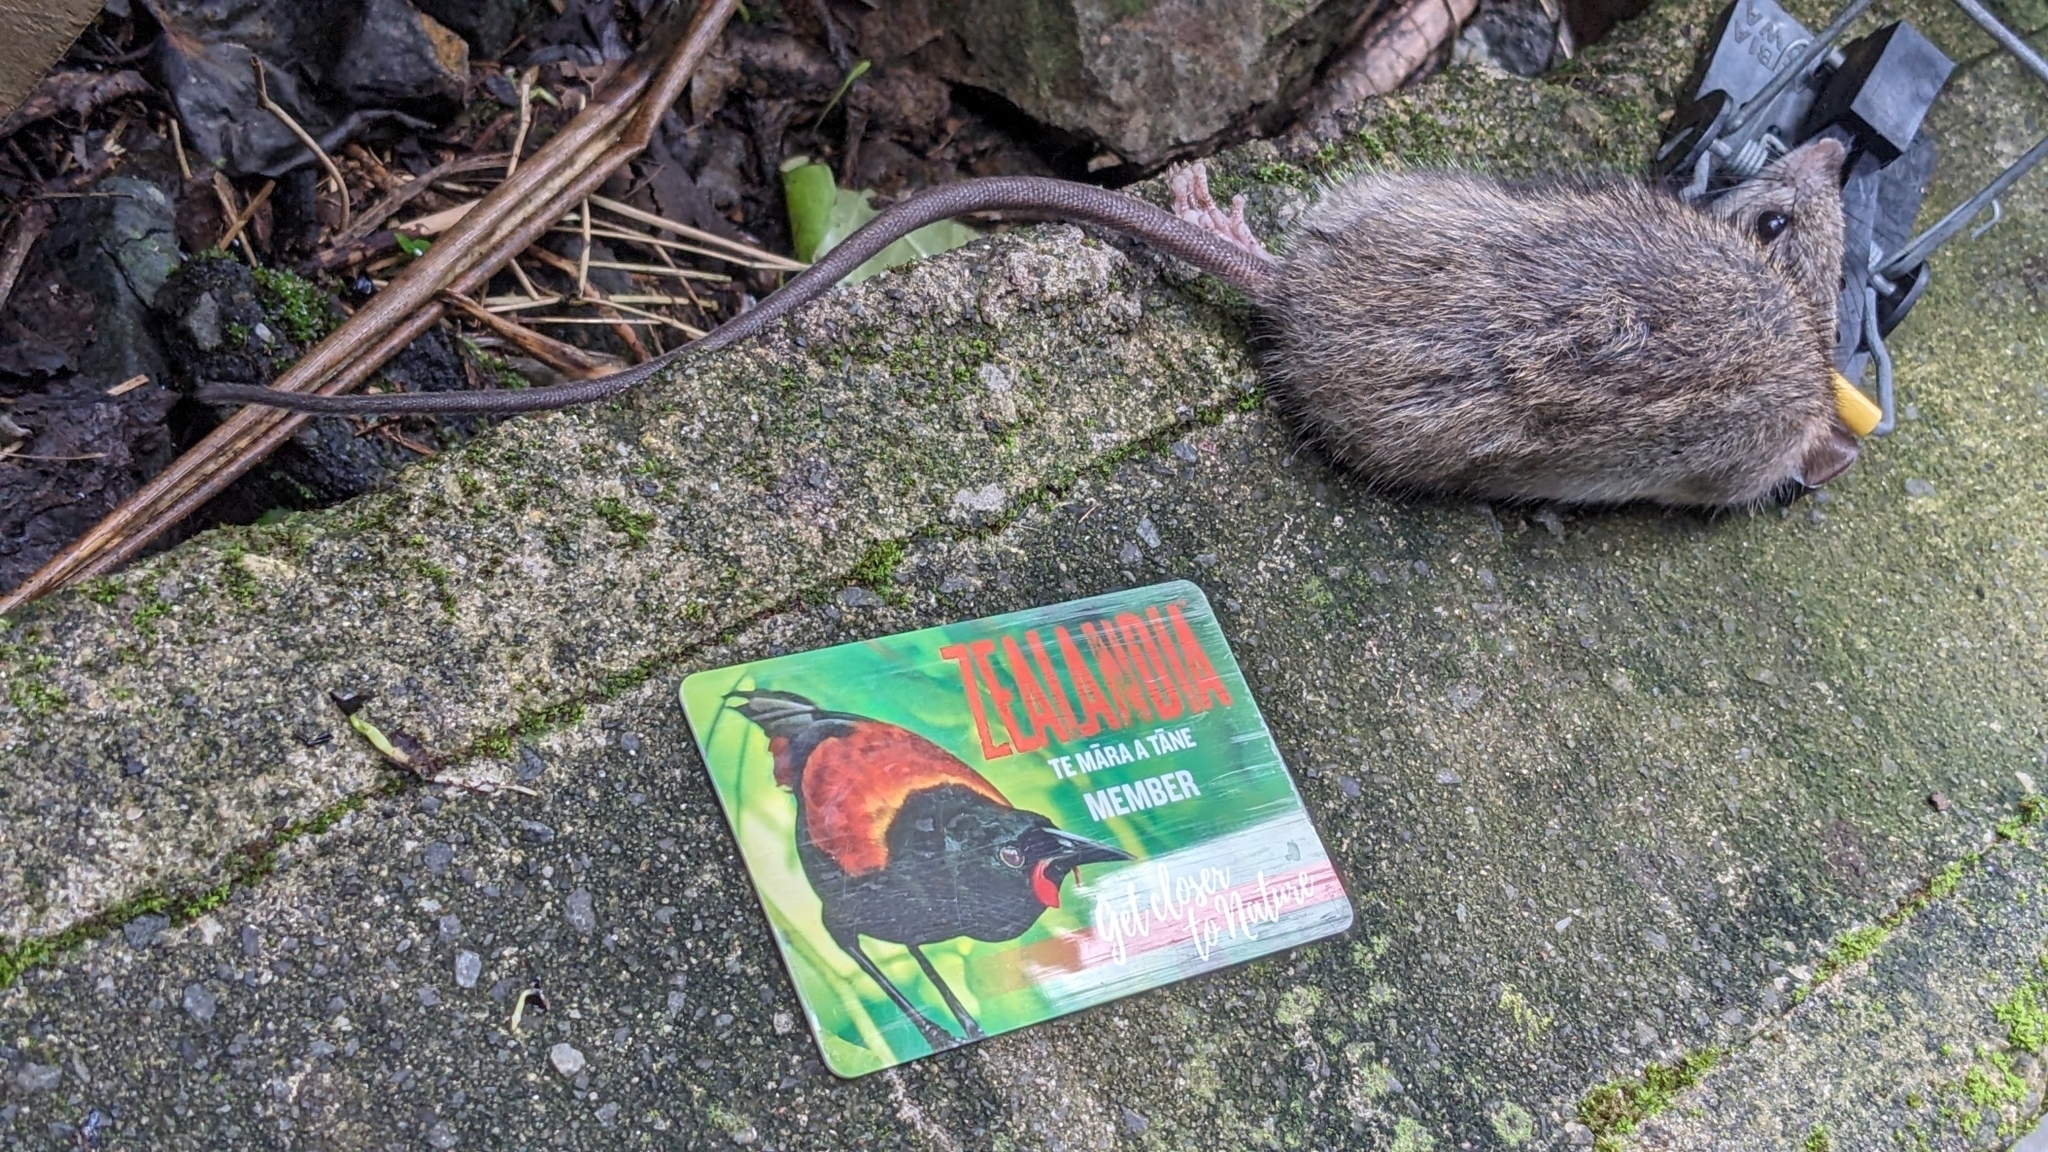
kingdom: Animalia
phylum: Chordata
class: Mammalia
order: Rodentia
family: Muridae
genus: Rattus
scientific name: Rattus rattus
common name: Black rat
